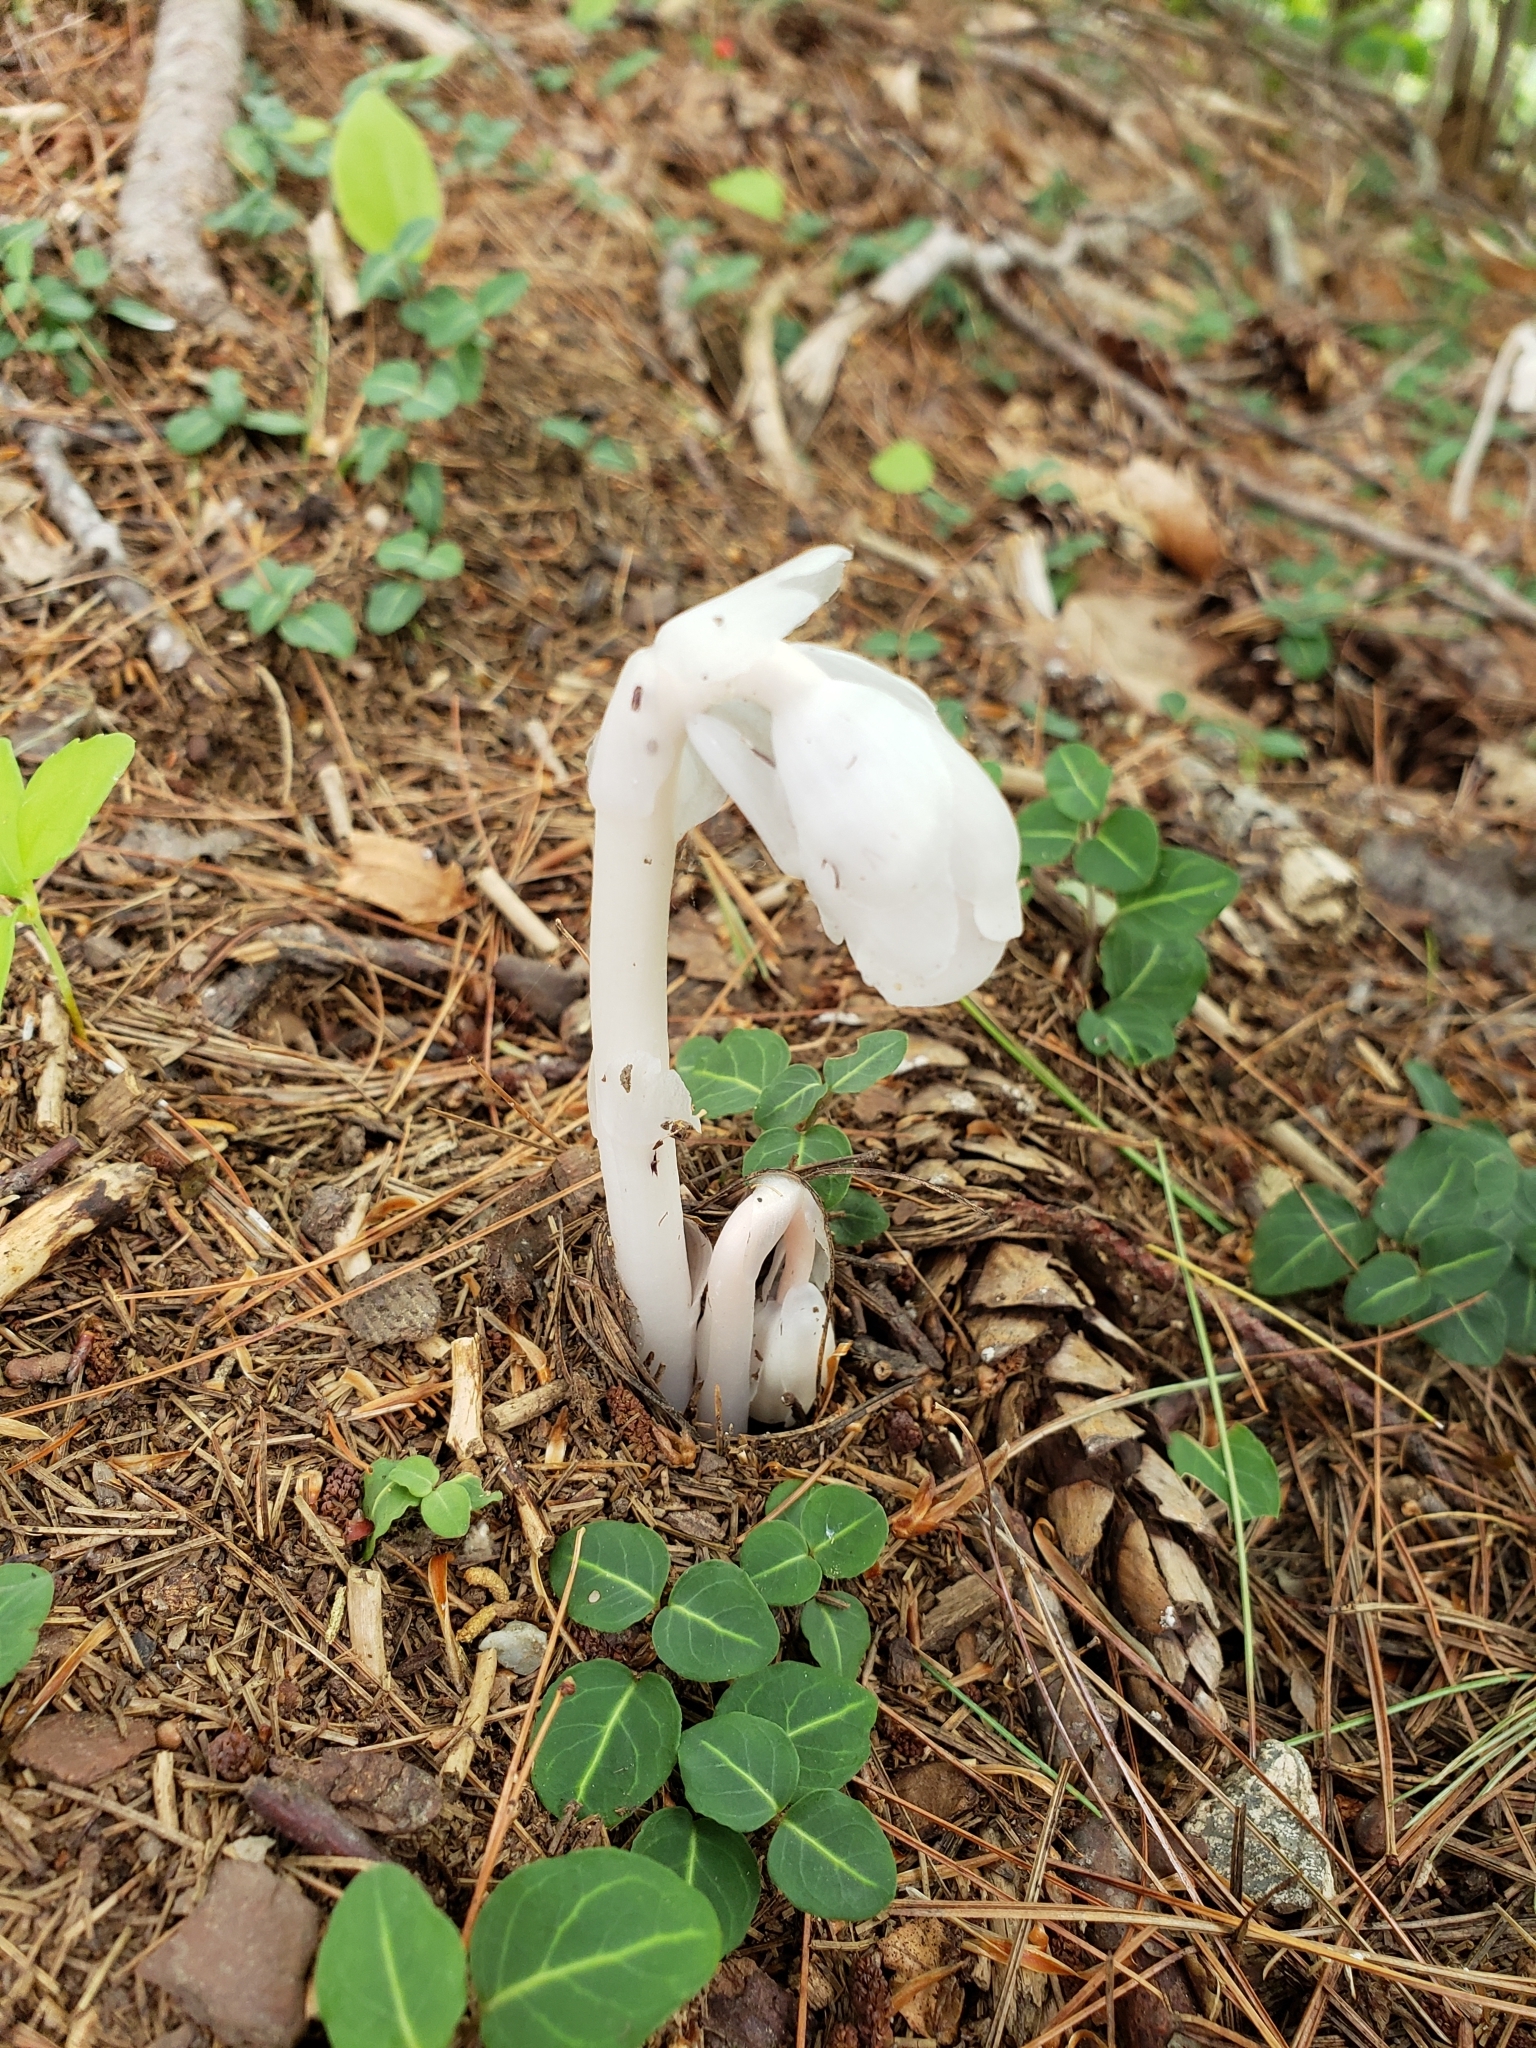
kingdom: Plantae
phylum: Tracheophyta
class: Magnoliopsida
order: Ericales
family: Ericaceae
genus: Monotropa
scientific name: Monotropa uniflora
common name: Convulsion root
